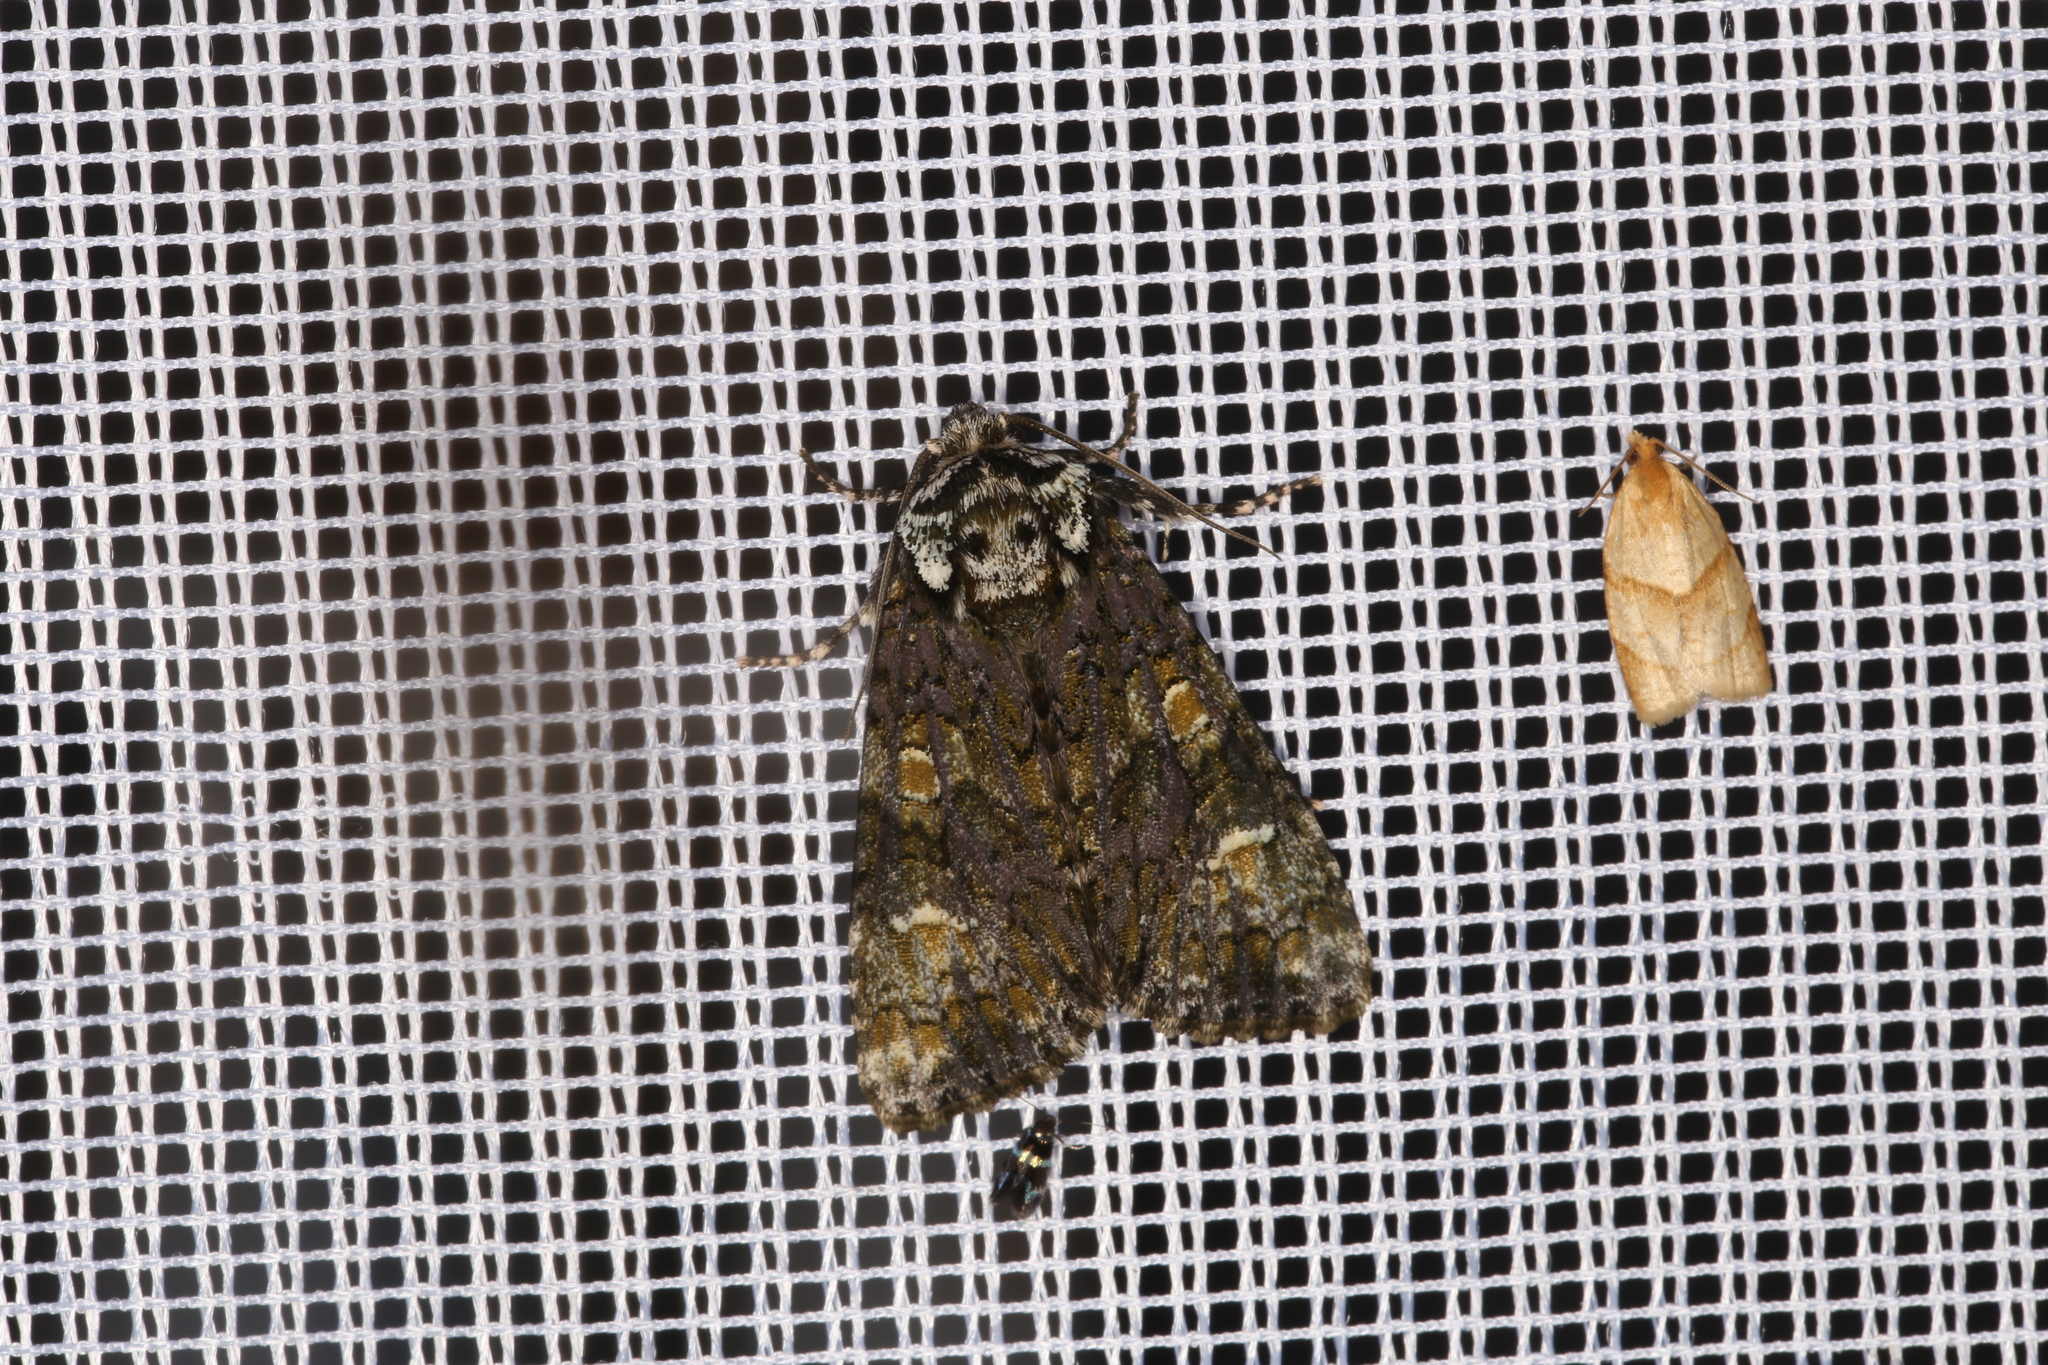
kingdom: Animalia
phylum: Arthropoda
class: Insecta
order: Lepidoptera
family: Noctuidae
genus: Craniophora
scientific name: Craniophora ligustri
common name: Coronet
